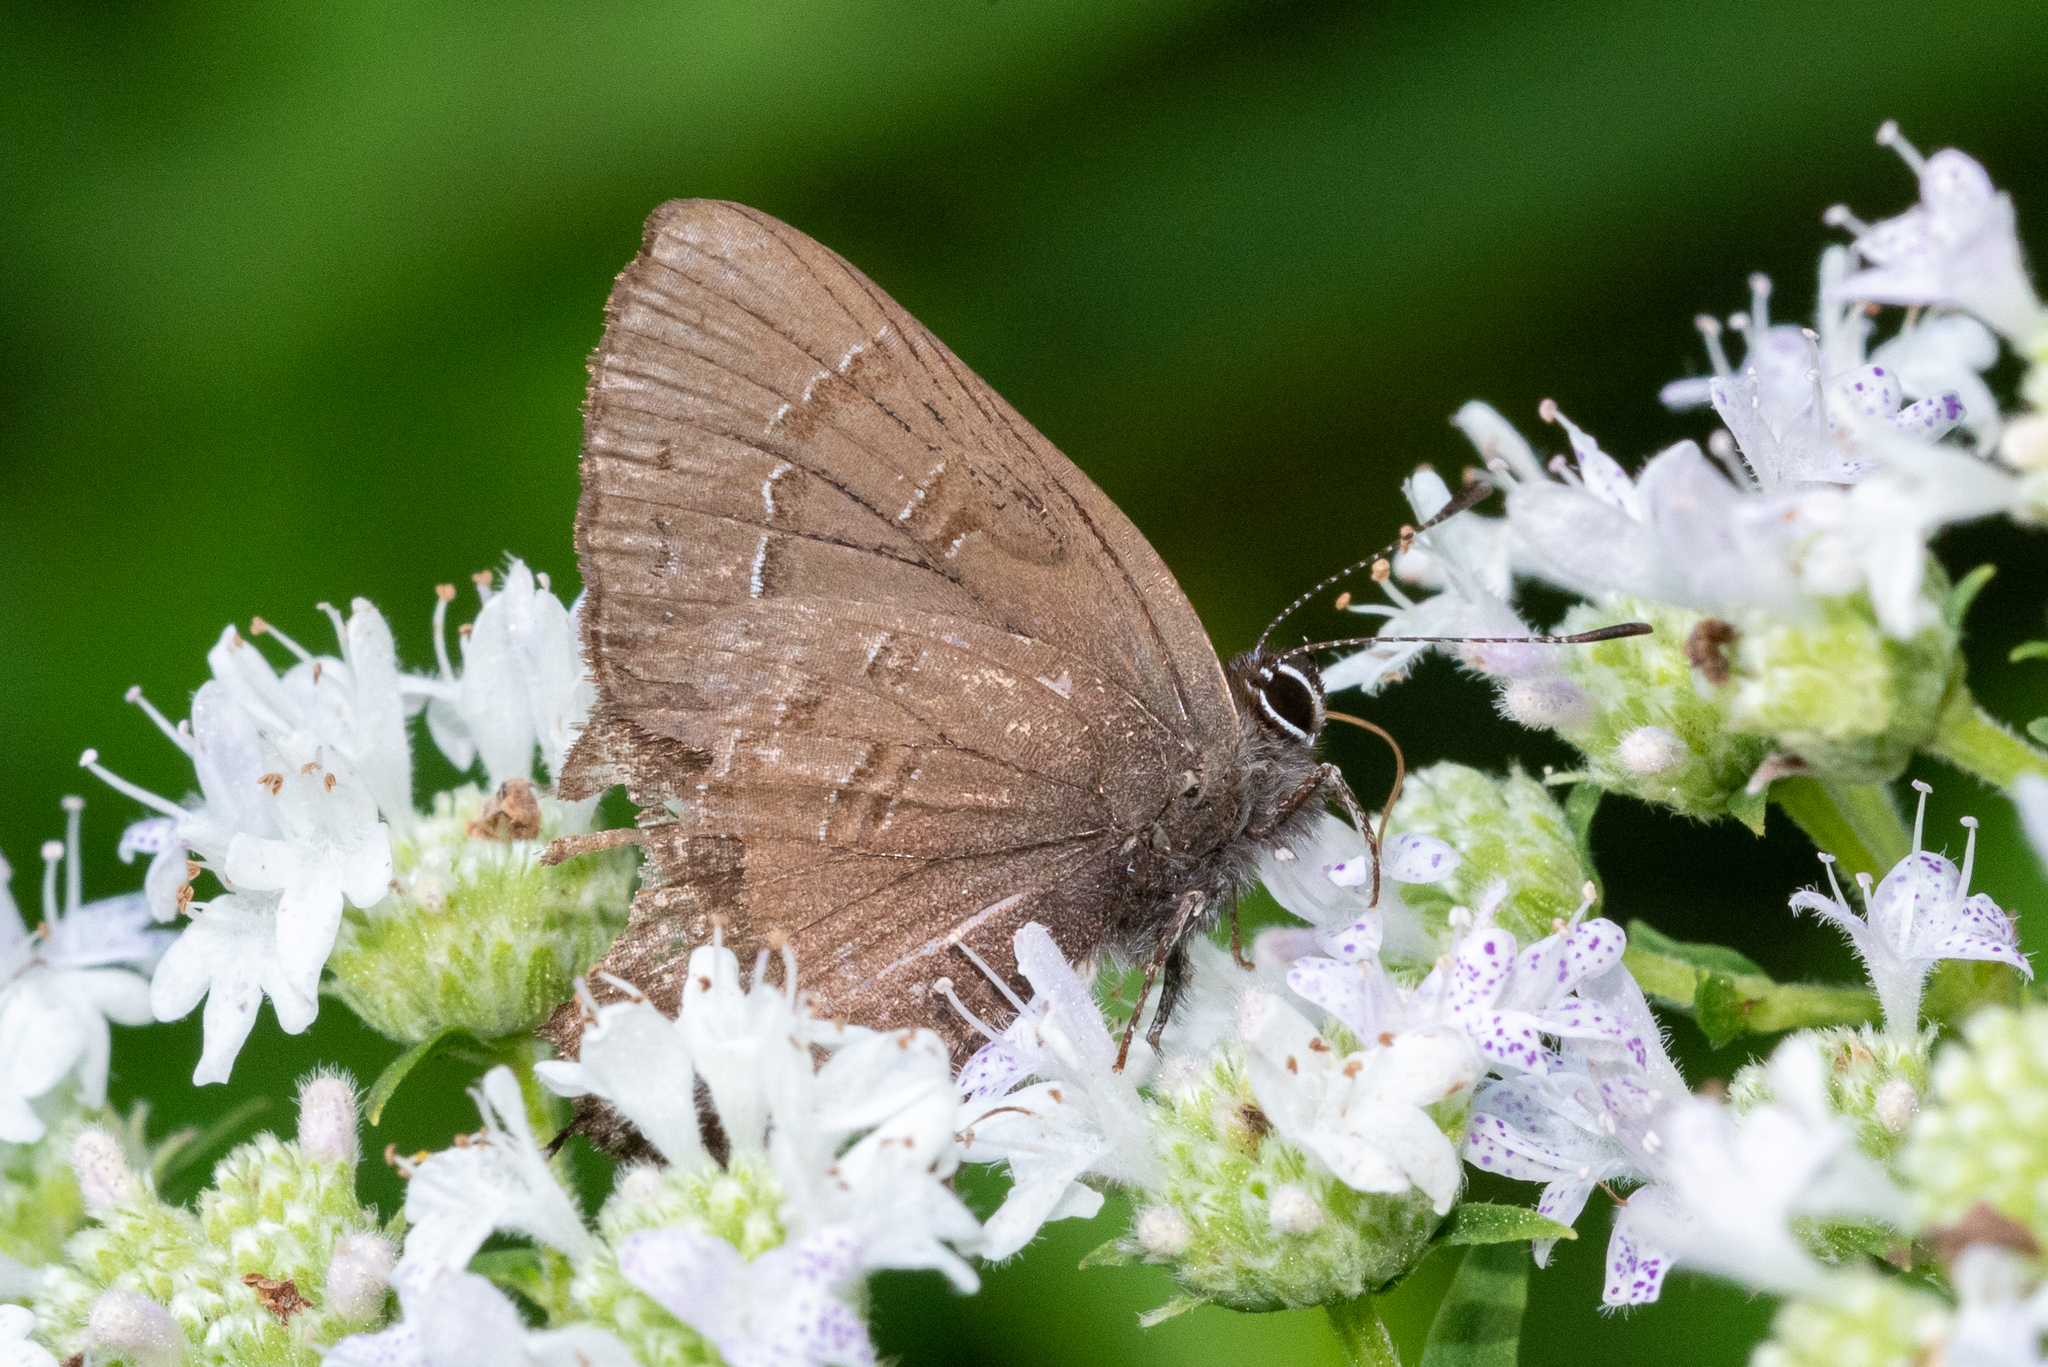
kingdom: Animalia
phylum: Arthropoda
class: Insecta
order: Lepidoptera
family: Lycaenidae
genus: Satyrium
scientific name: Satyrium calanus
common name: Banded hairstreak
